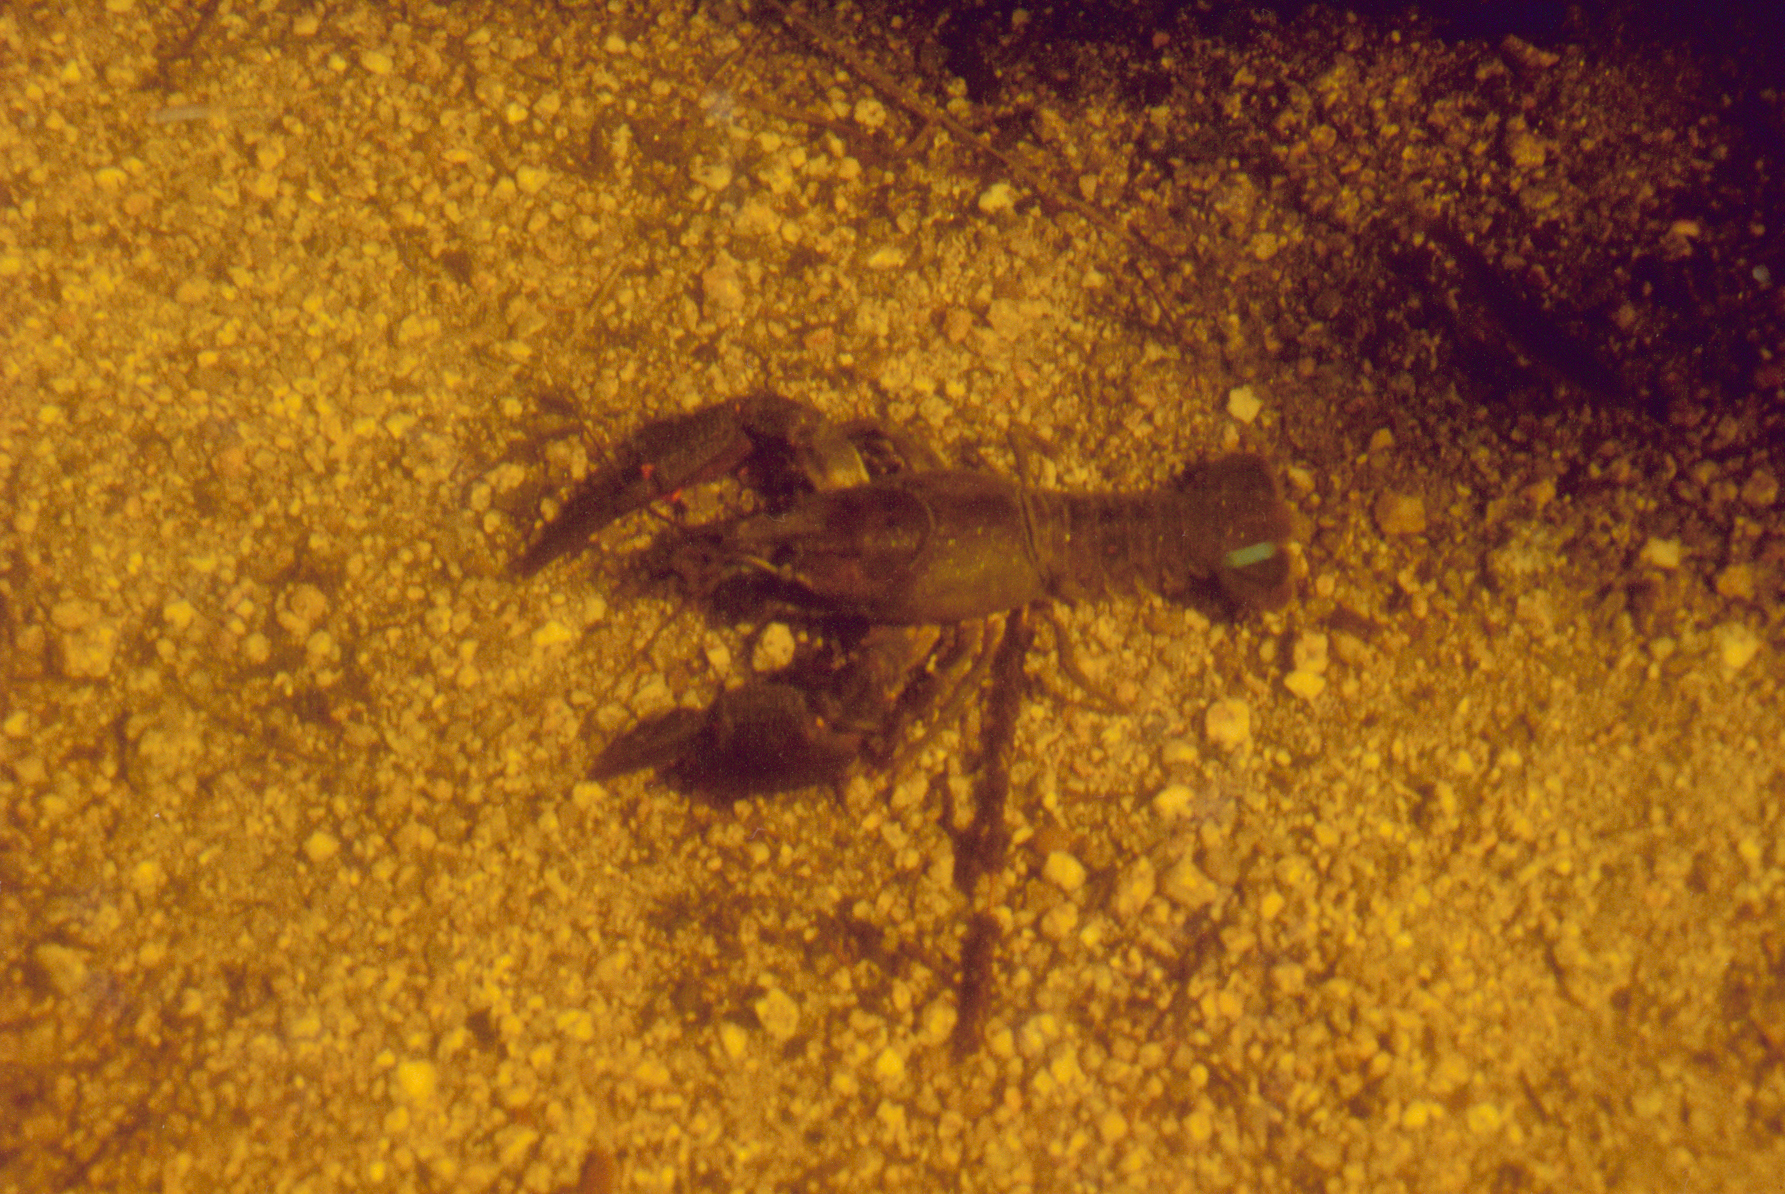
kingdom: Animalia
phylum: Arthropoda
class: Malacostraca
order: Decapoda
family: Astacidae
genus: Astacus
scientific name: Astacus astacus
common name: Noble crayfish
